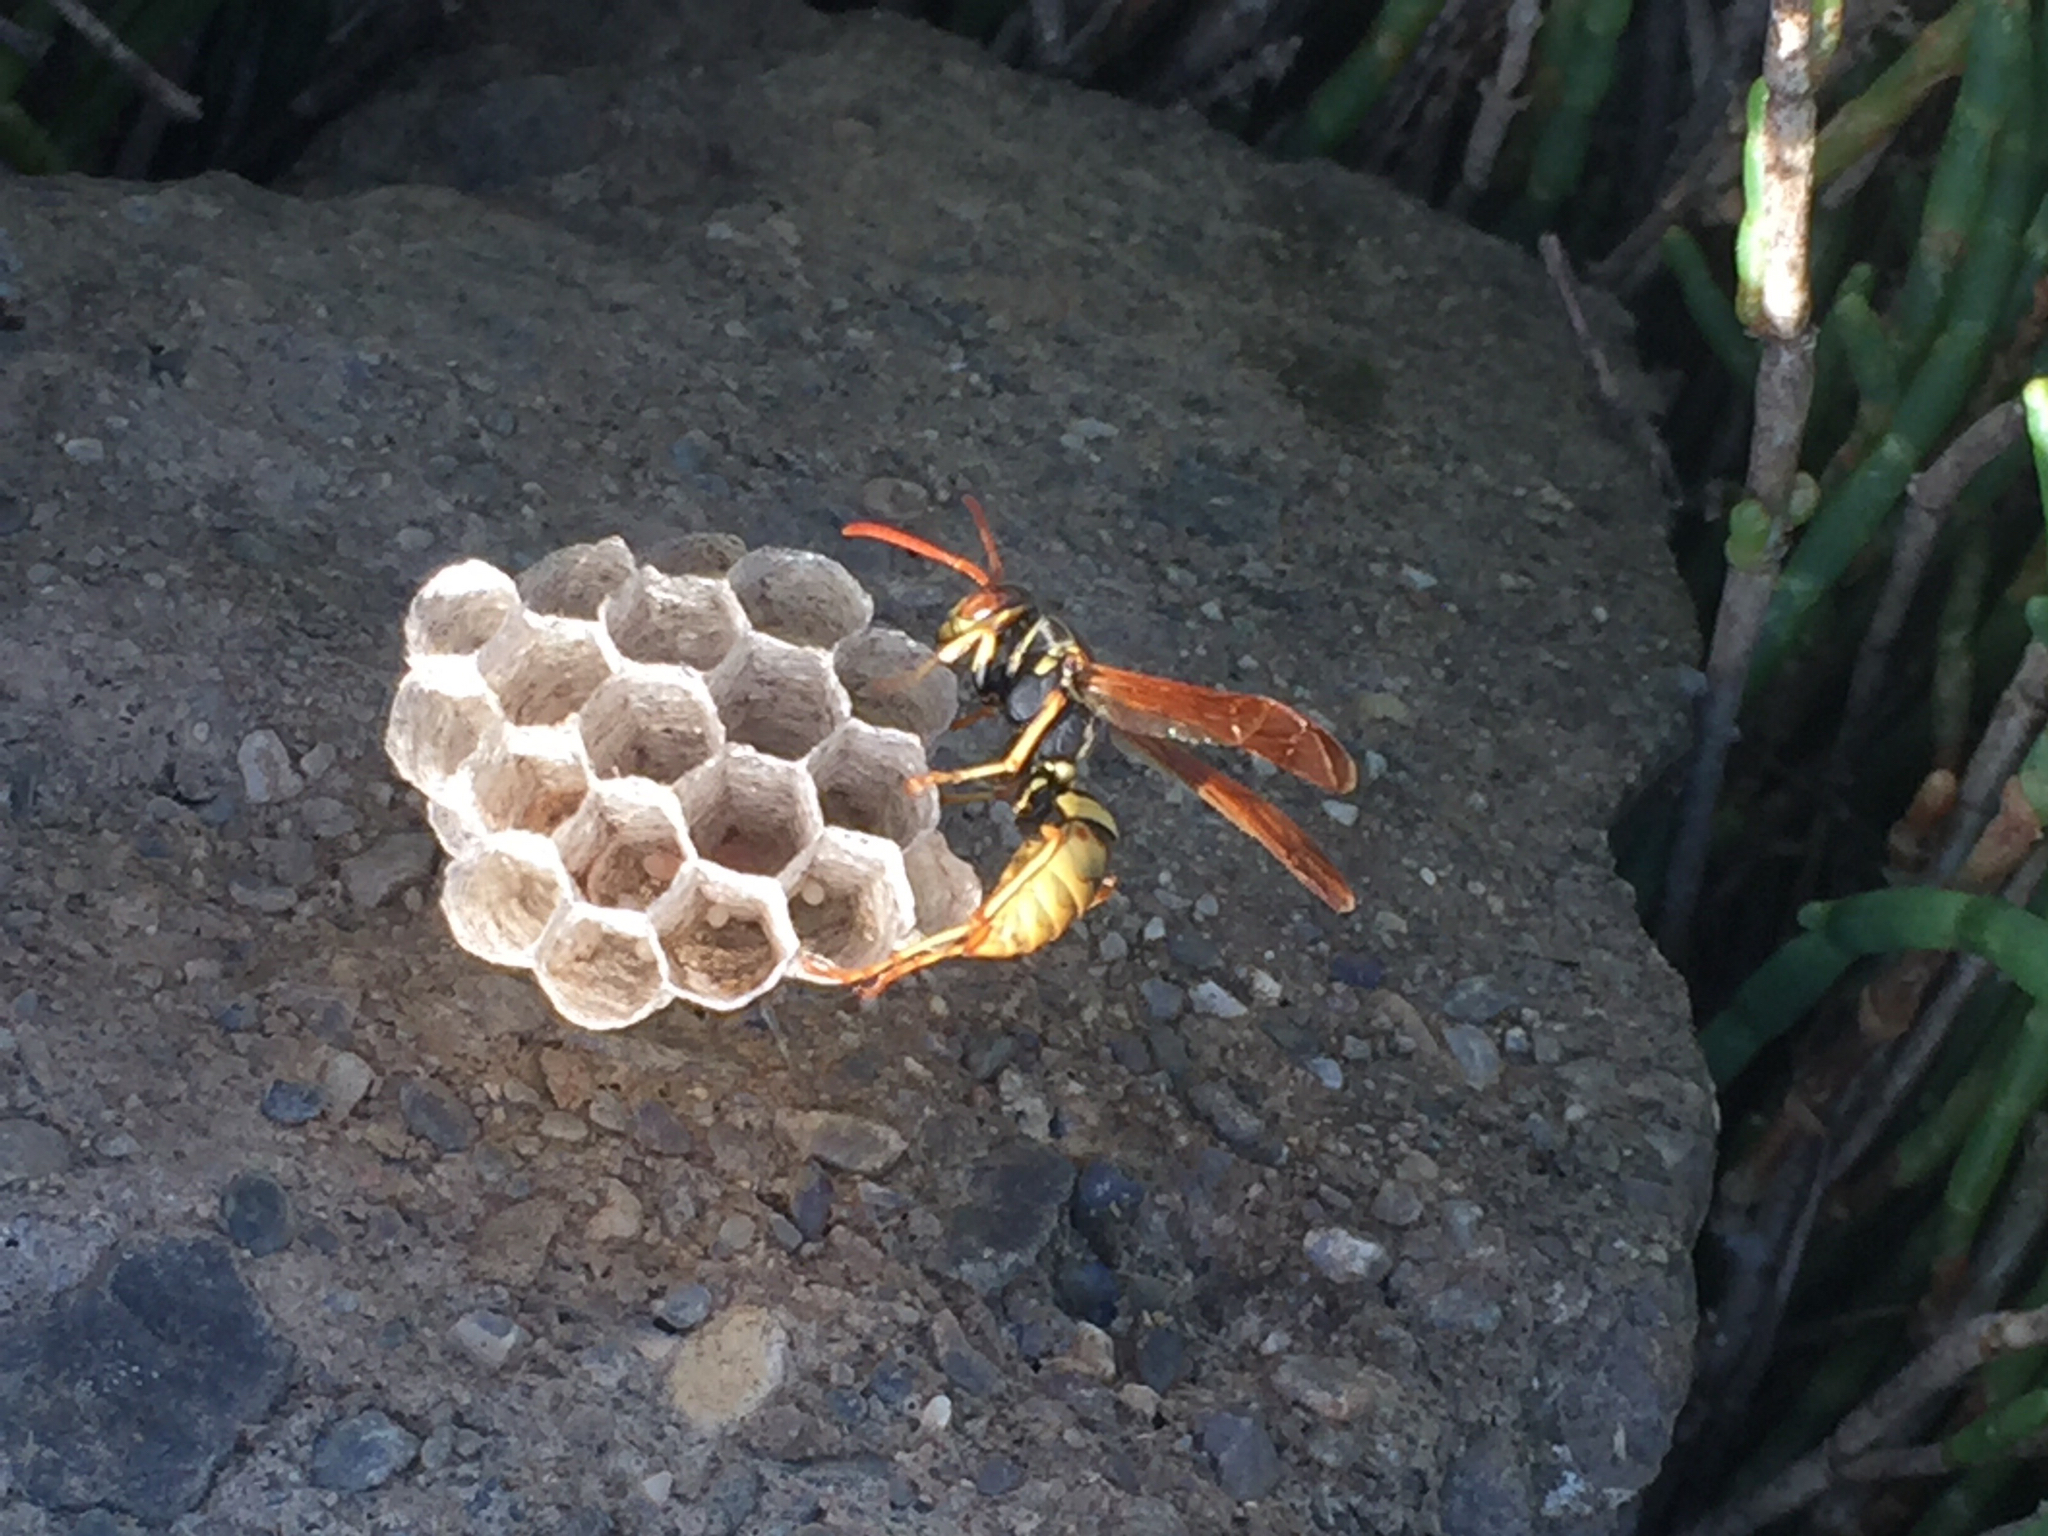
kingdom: Animalia
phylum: Arthropoda
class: Insecta
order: Hymenoptera
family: Eumenidae
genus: Polistes
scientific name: Polistes aurifer
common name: Paper wasp
